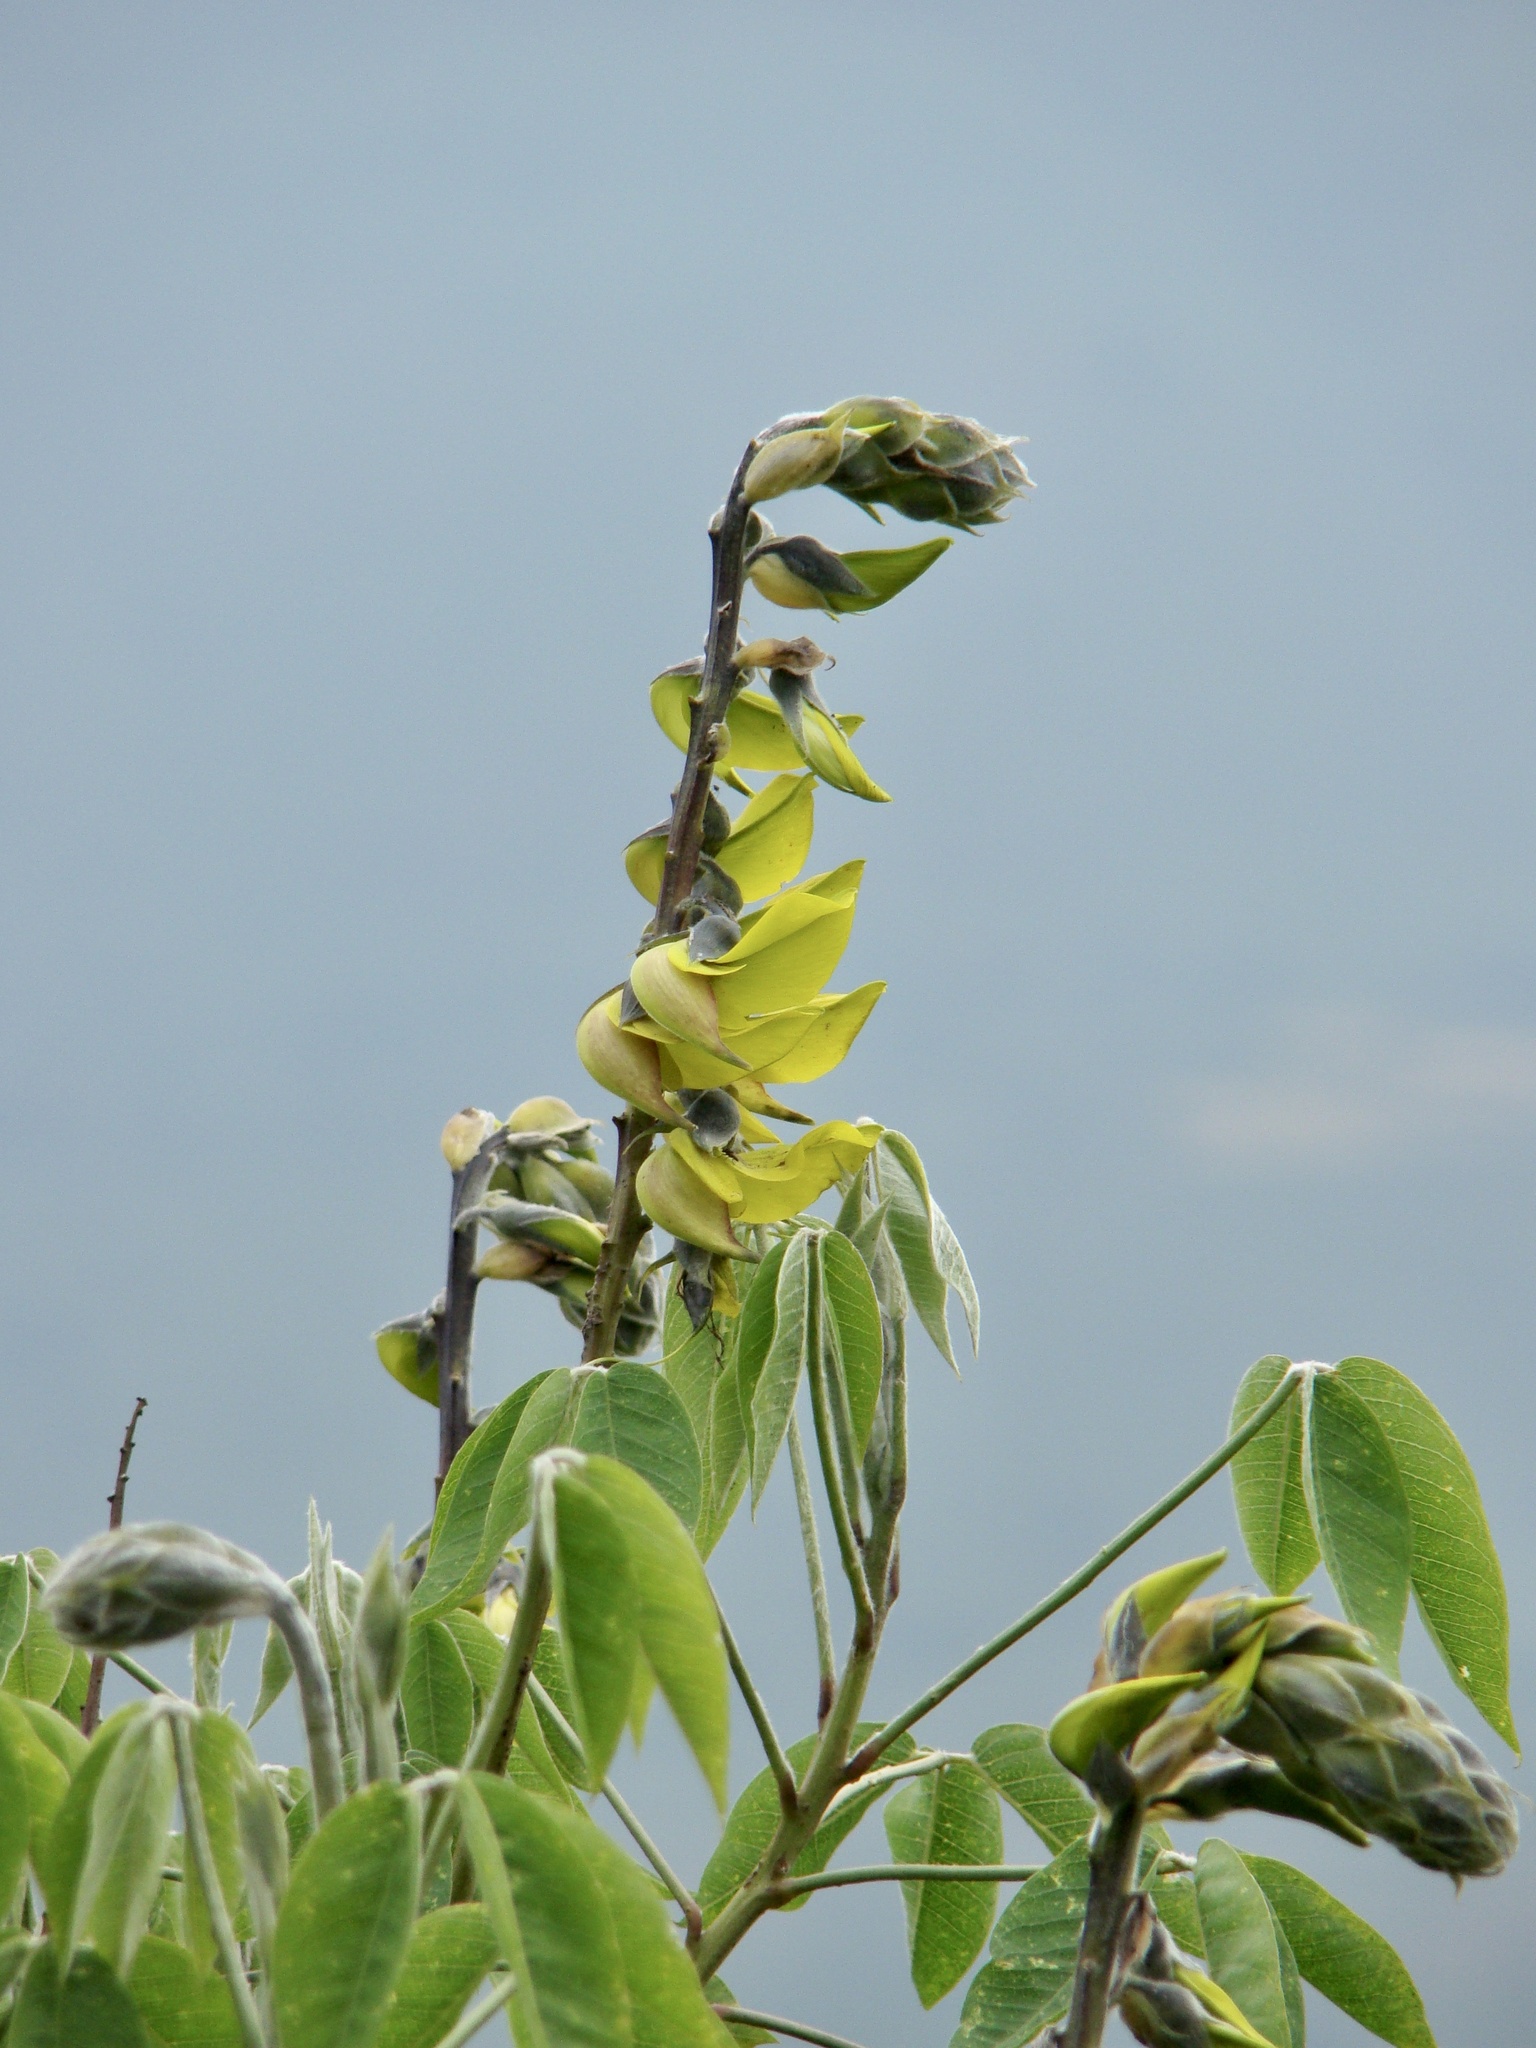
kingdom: Plantae
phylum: Tracheophyta
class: Magnoliopsida
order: Fabales
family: Fabaceae
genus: Crotalaria
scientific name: Crotalaria agatiflora
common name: Birdflower
